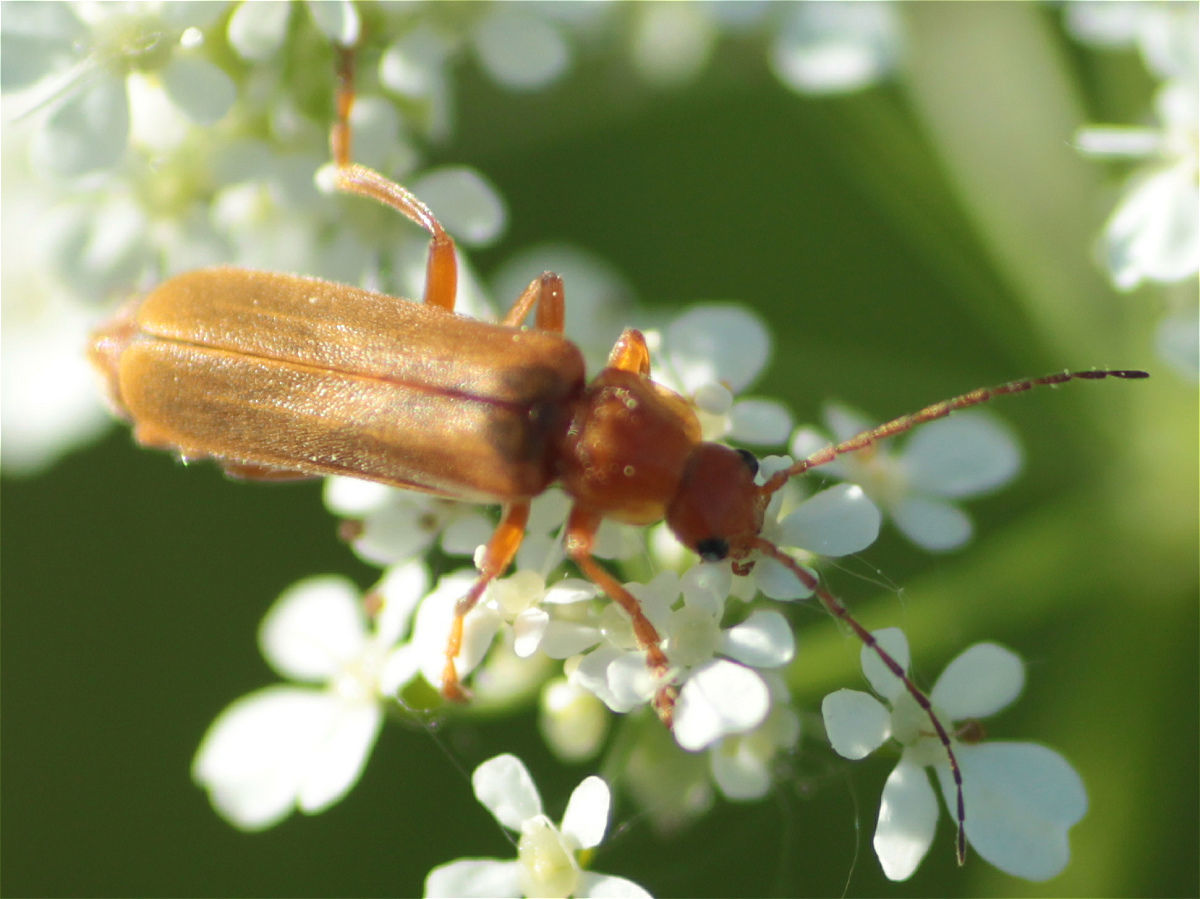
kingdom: Animalia
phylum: Arthropoda
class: Insecta
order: Coleoptera
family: Cantharidae
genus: Cantharis
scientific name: Cantharis rufa
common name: Red-spotted soldier beetle
